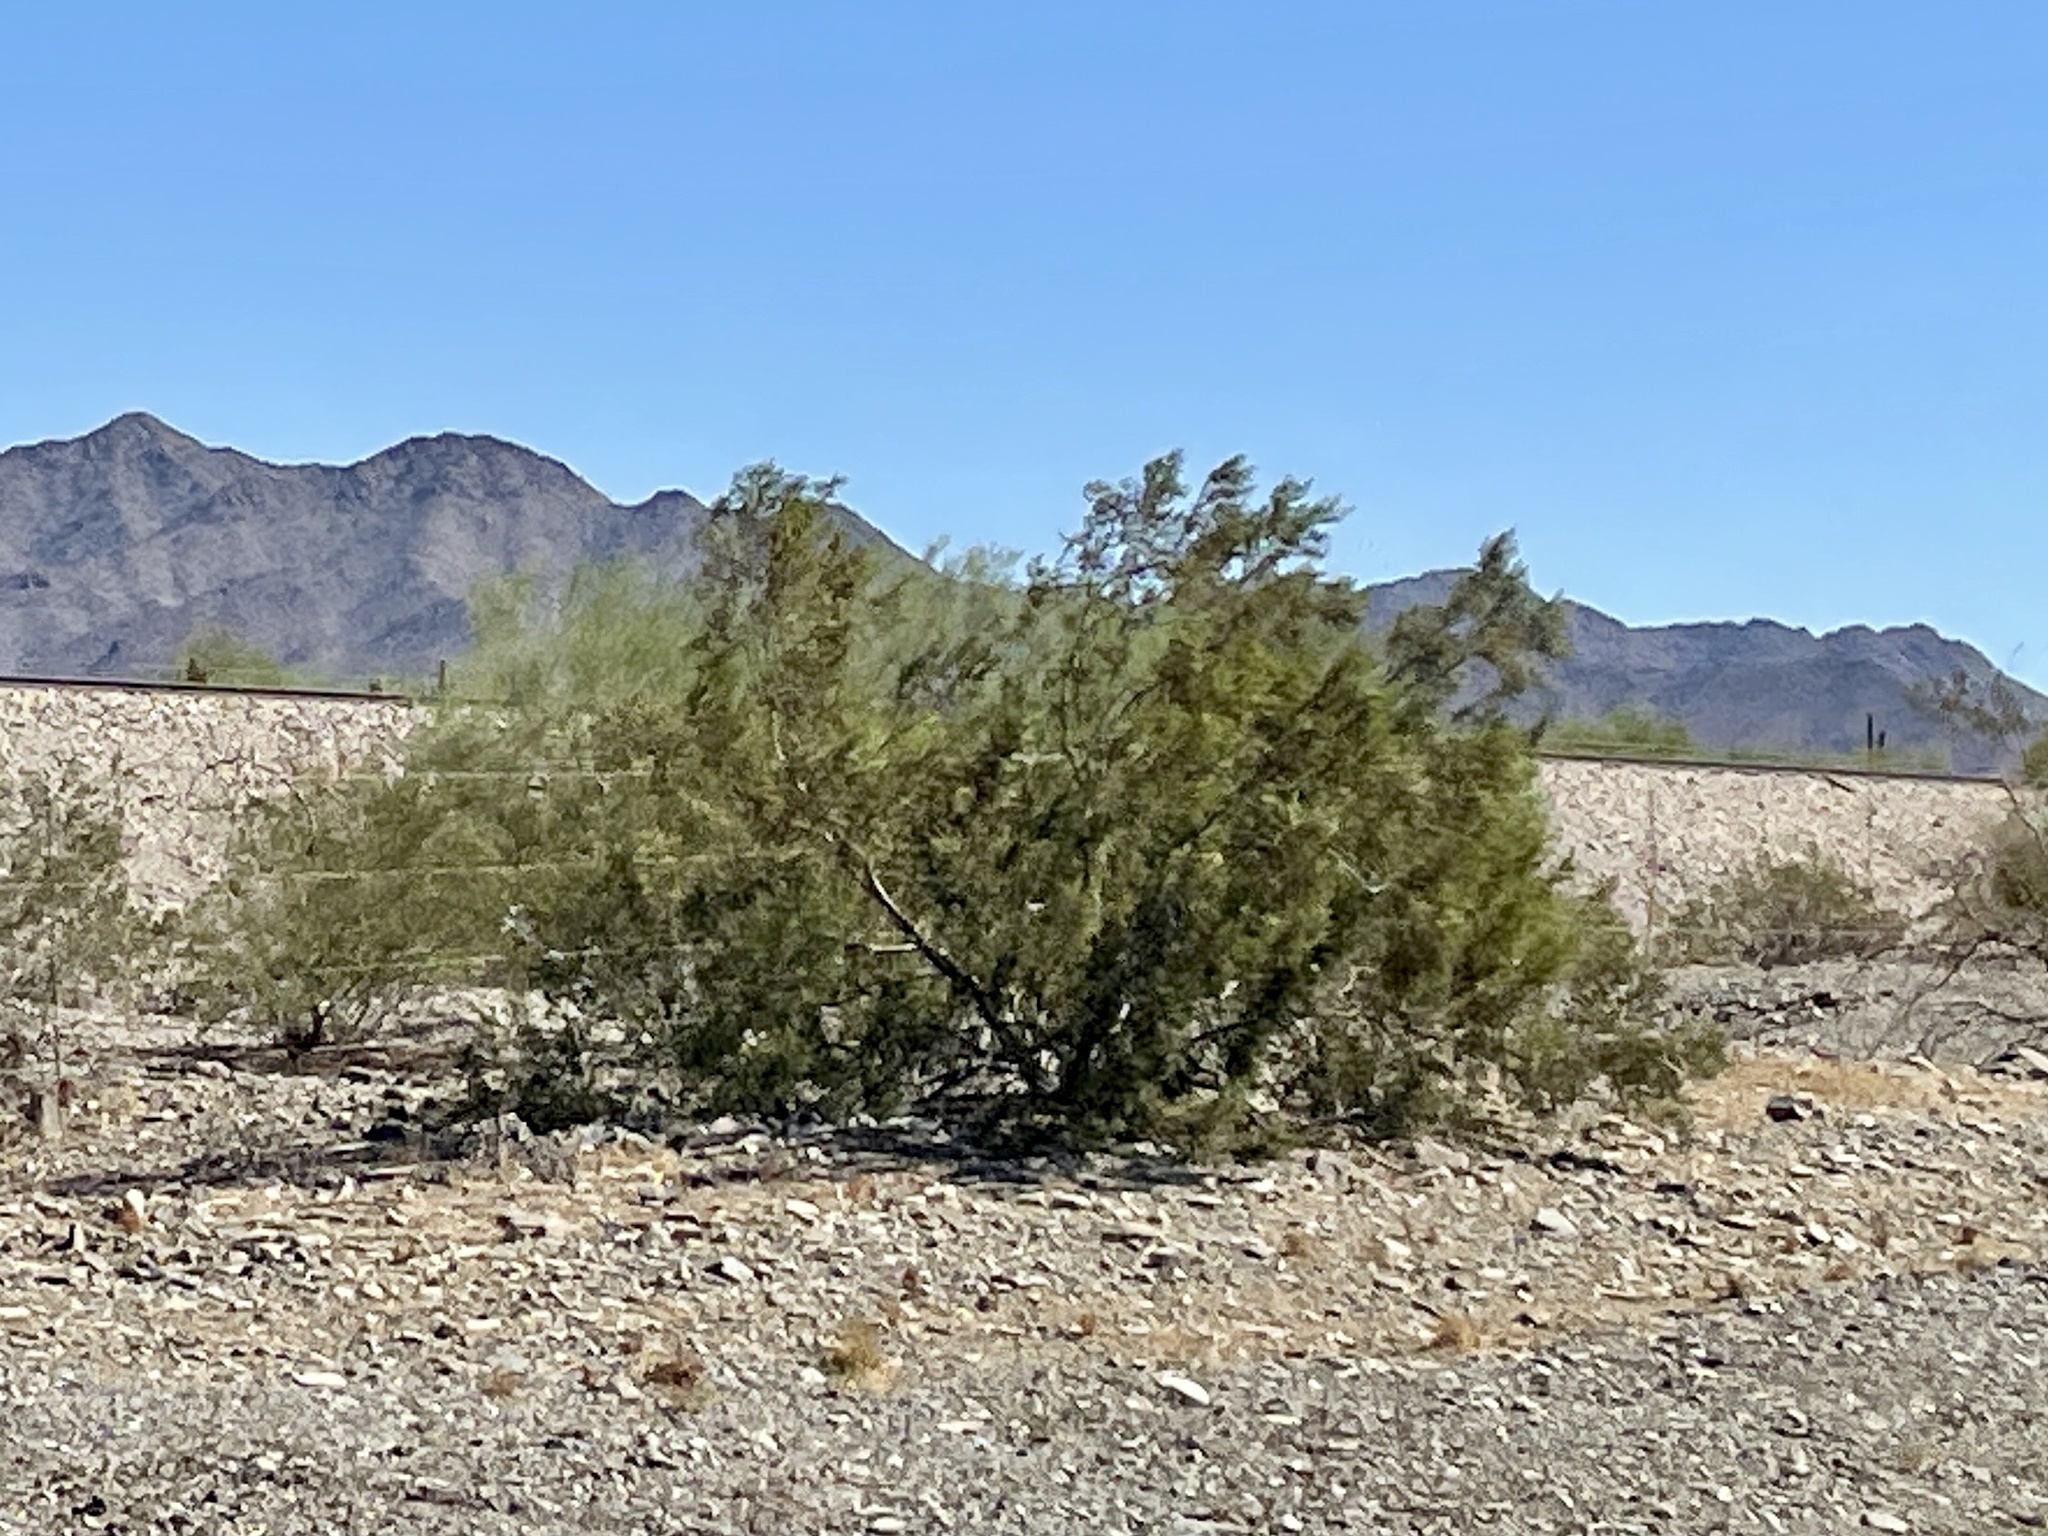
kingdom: Plantae
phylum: Tracheophyta
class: Magnoliopsida
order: Zygophyllales
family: Zygophyllaceae
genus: Larrea
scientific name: Larrea tridentata
